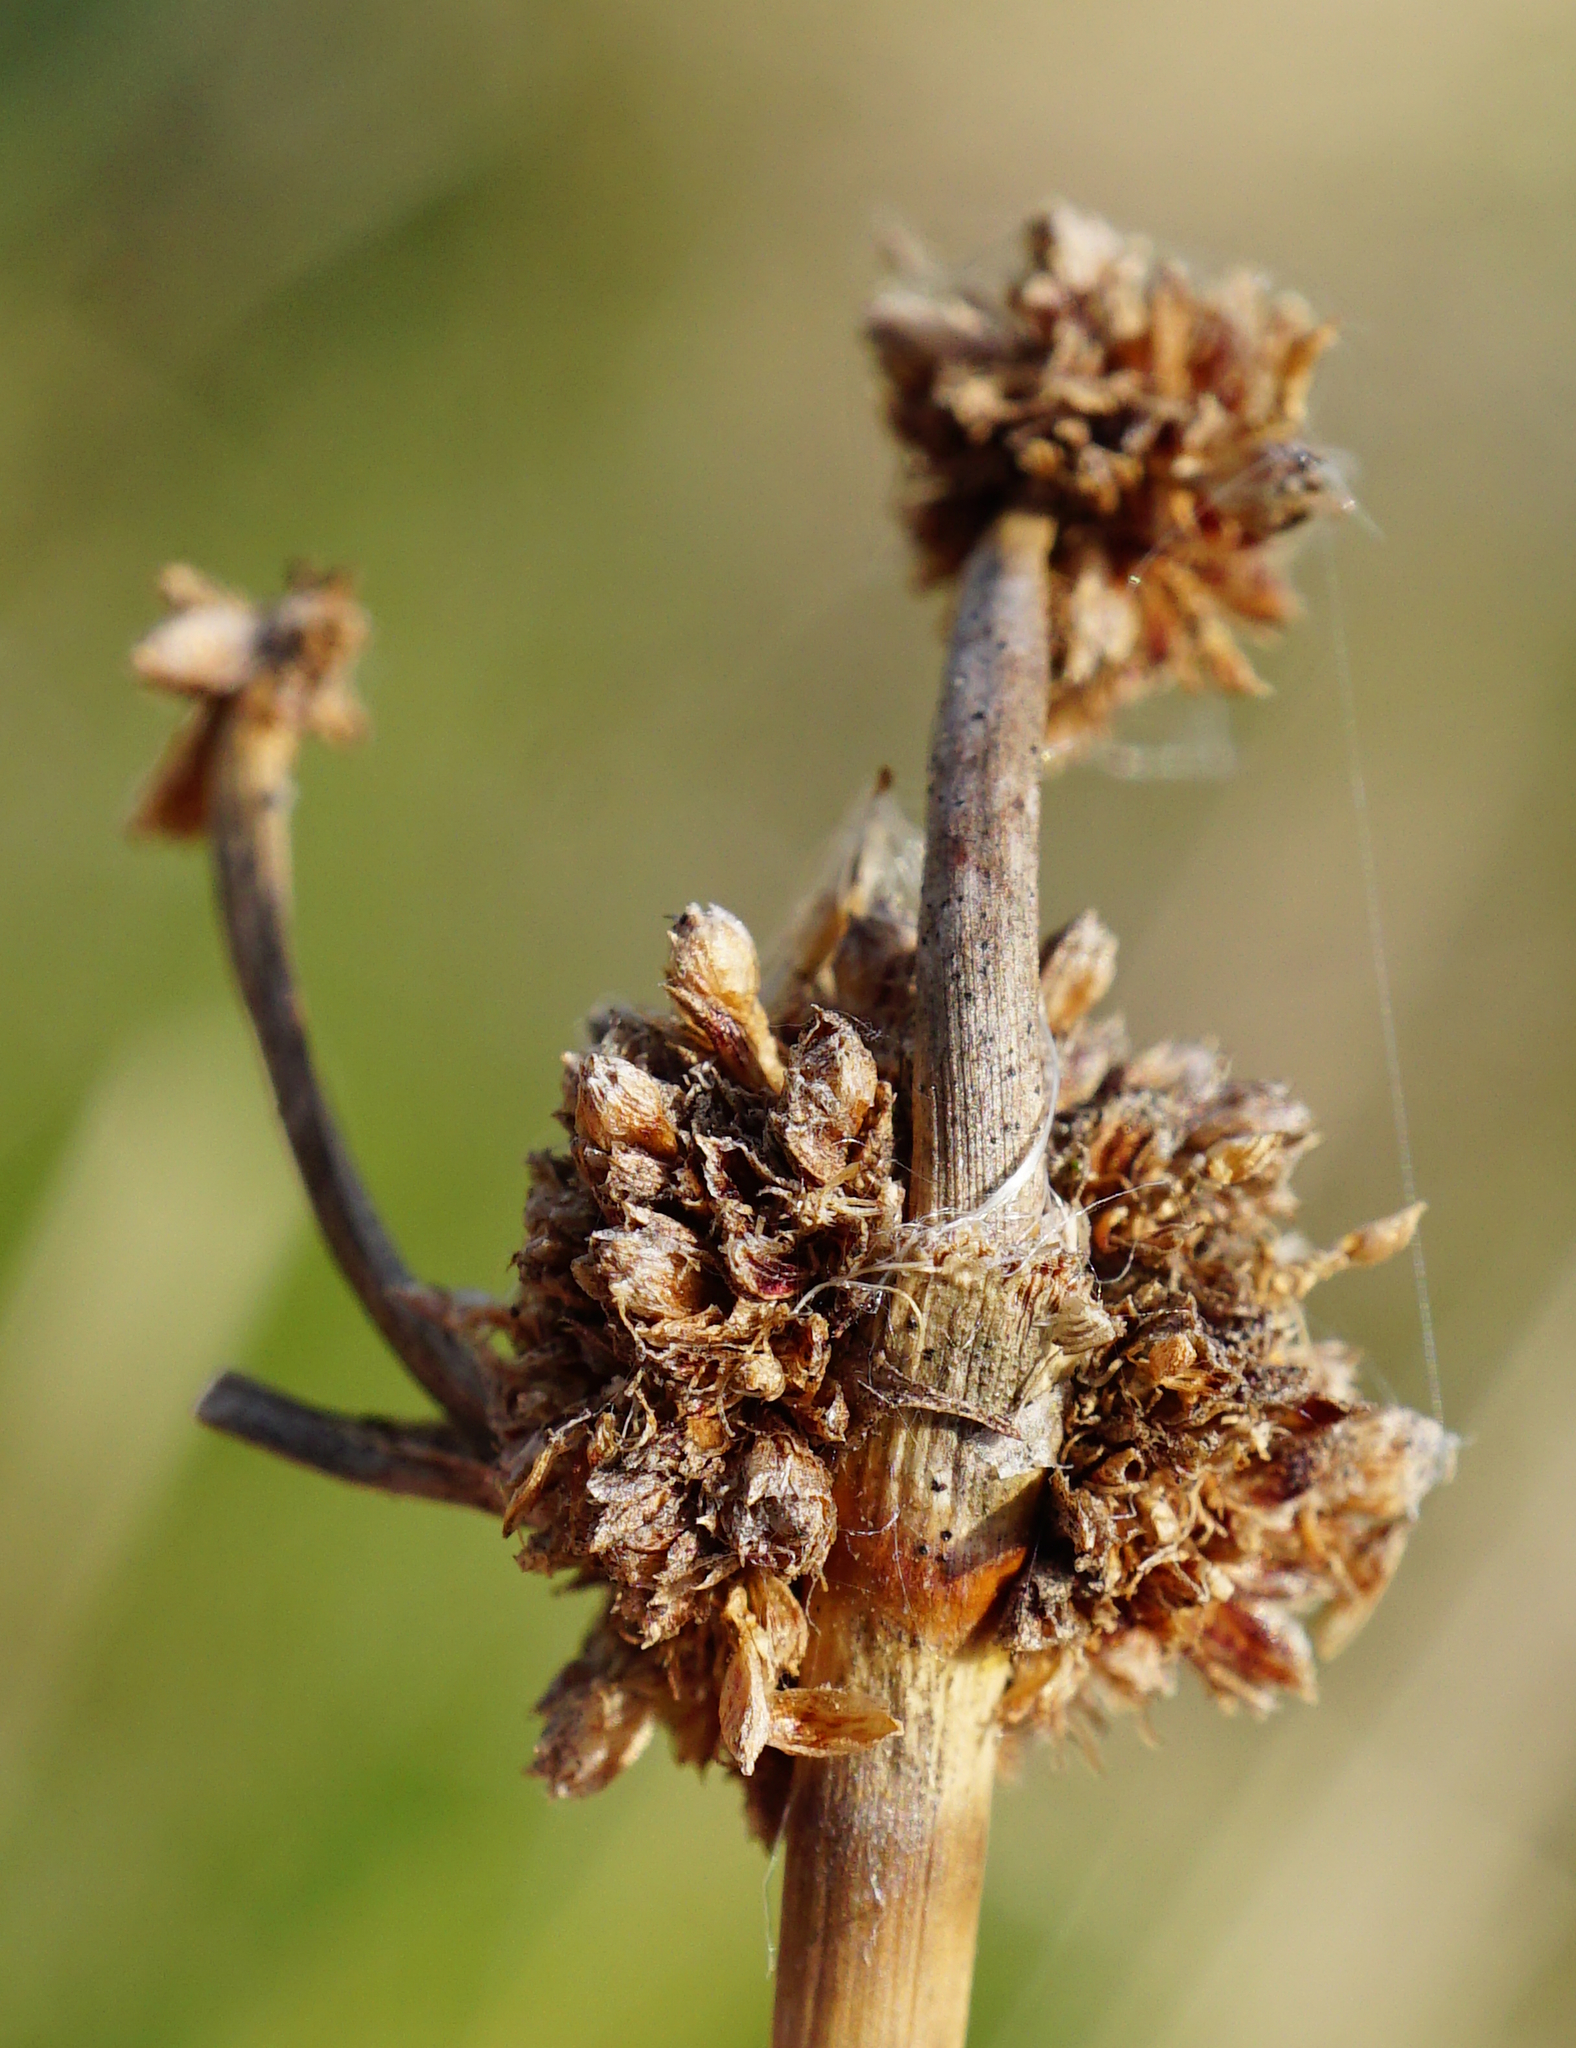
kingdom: Plantae
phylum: Tracheophyta
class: Liliopsida
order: Poales
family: Cyperaceae
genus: Scirpoides
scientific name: Scirpoides holoschoenus
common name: Round-headed club-rush
